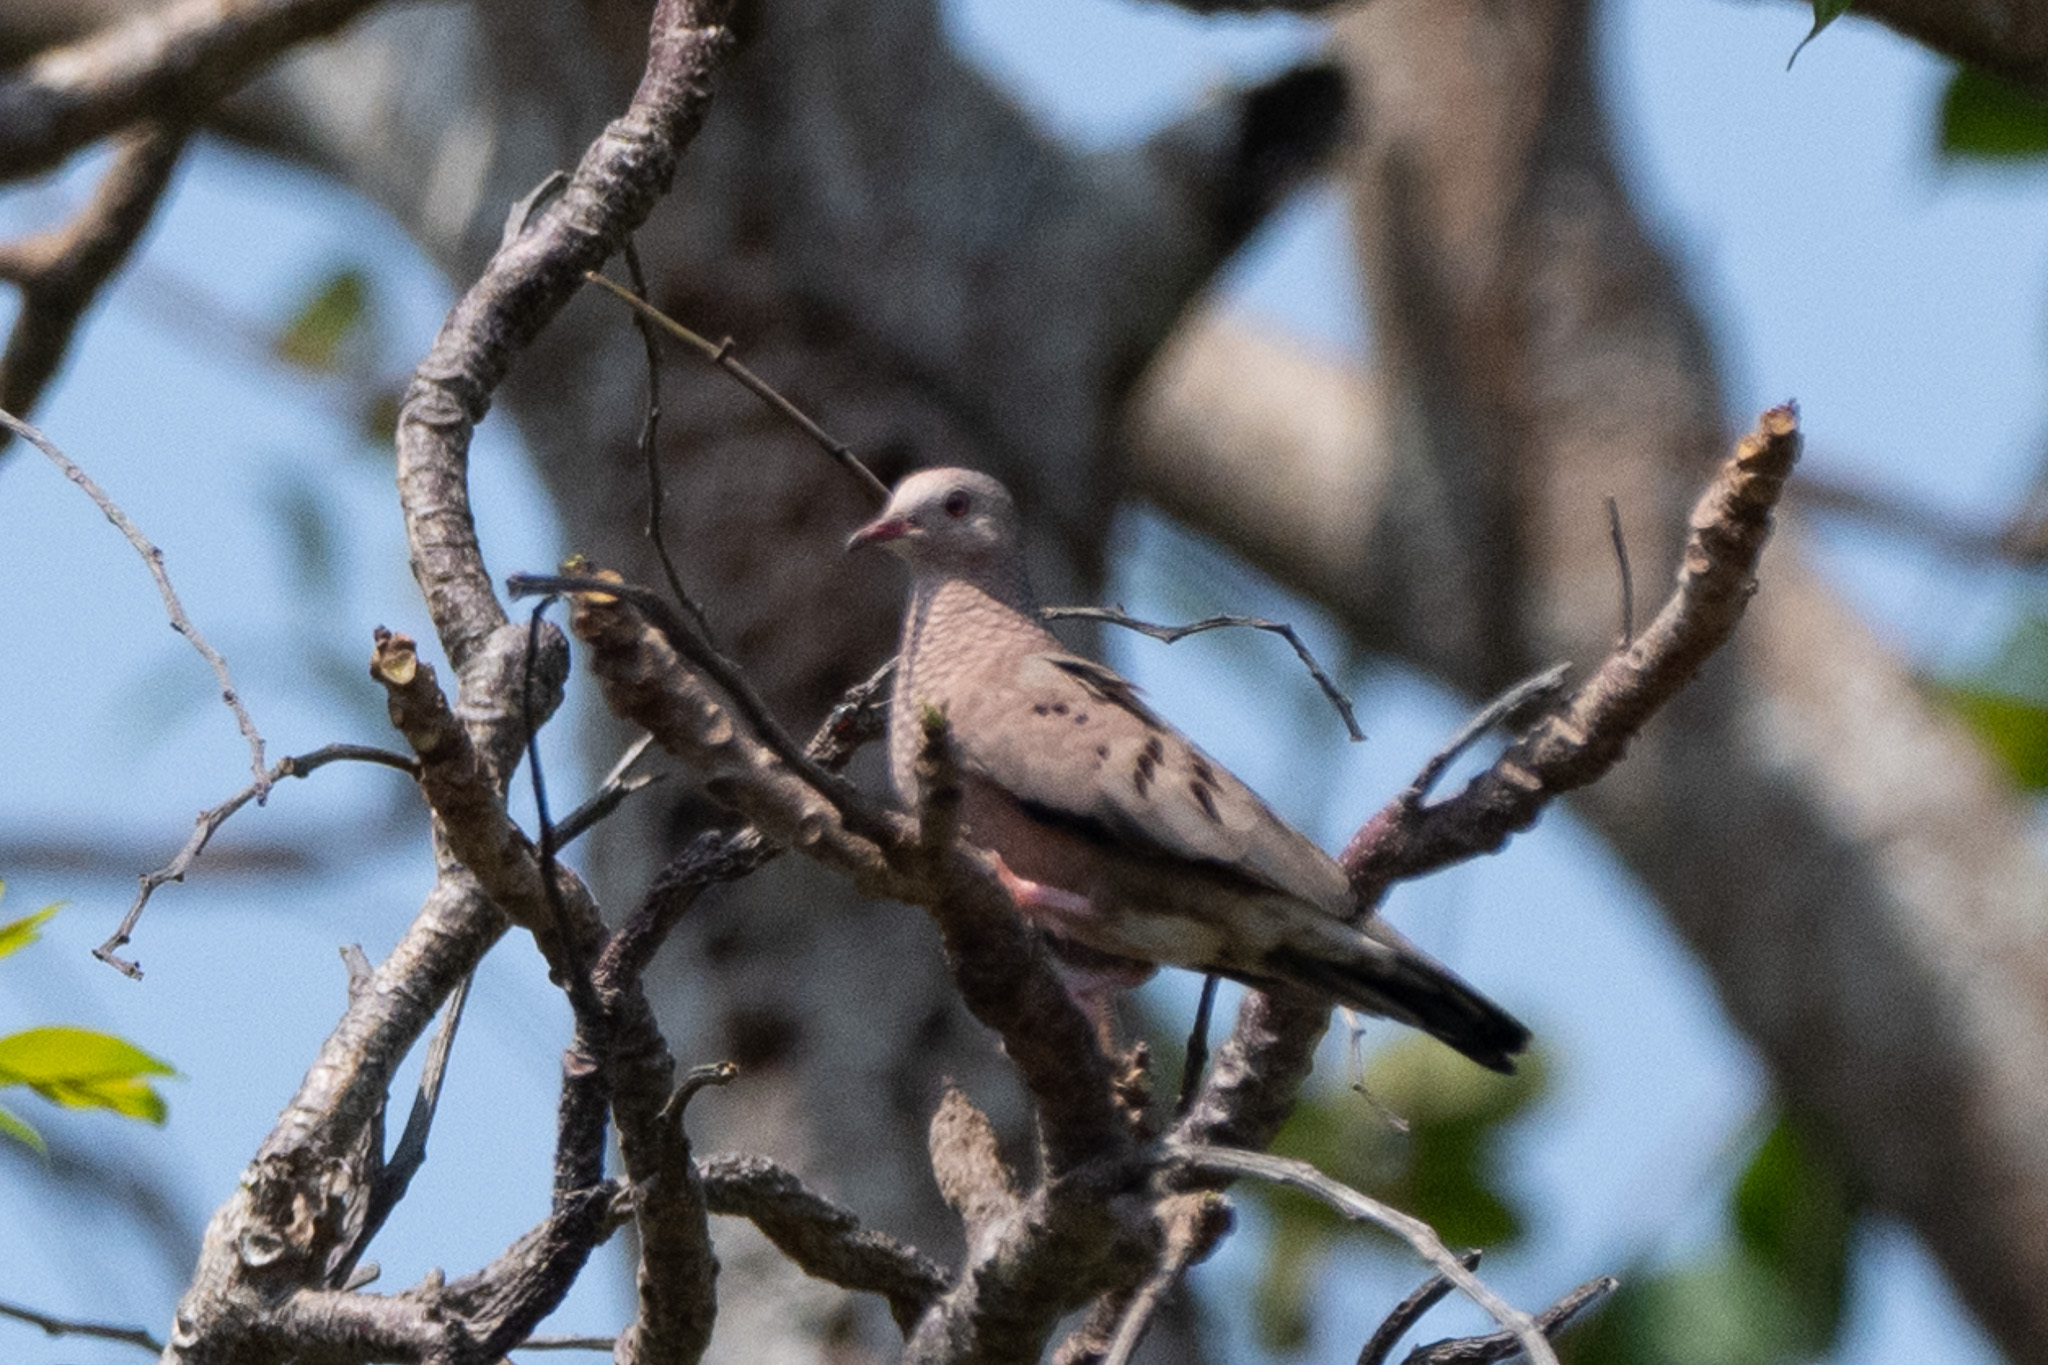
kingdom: Animalia
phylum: Chordata
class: Aves
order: Columbiformes
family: Columbidae
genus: Columbina
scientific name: Columbina passerina
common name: Common ground-dove
